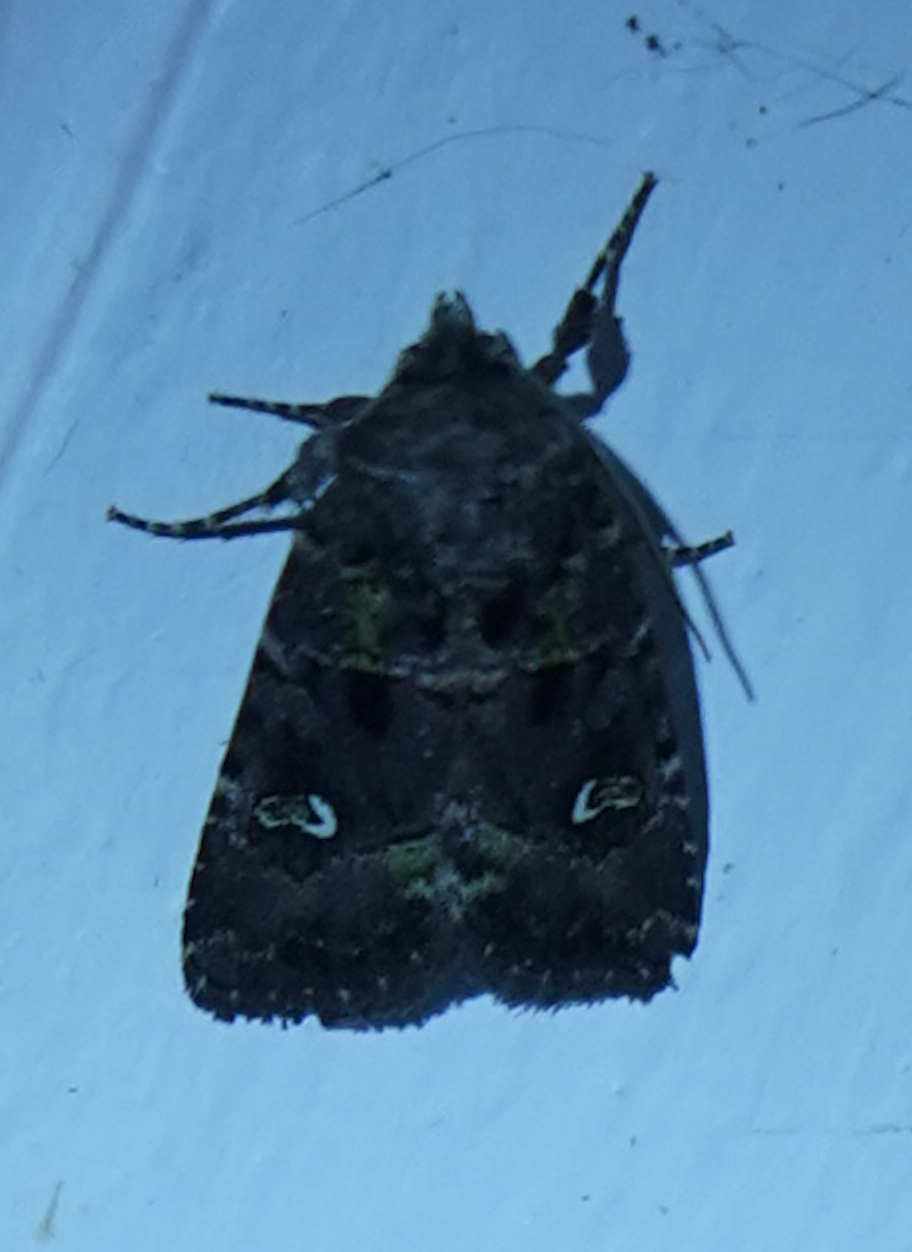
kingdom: Animalia
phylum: Arthropoda
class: Insecta
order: Lepidoptera
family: Noctuidae
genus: Lacinipolia
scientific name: Lacinipolia renigera
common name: Kidney-spotted minor
